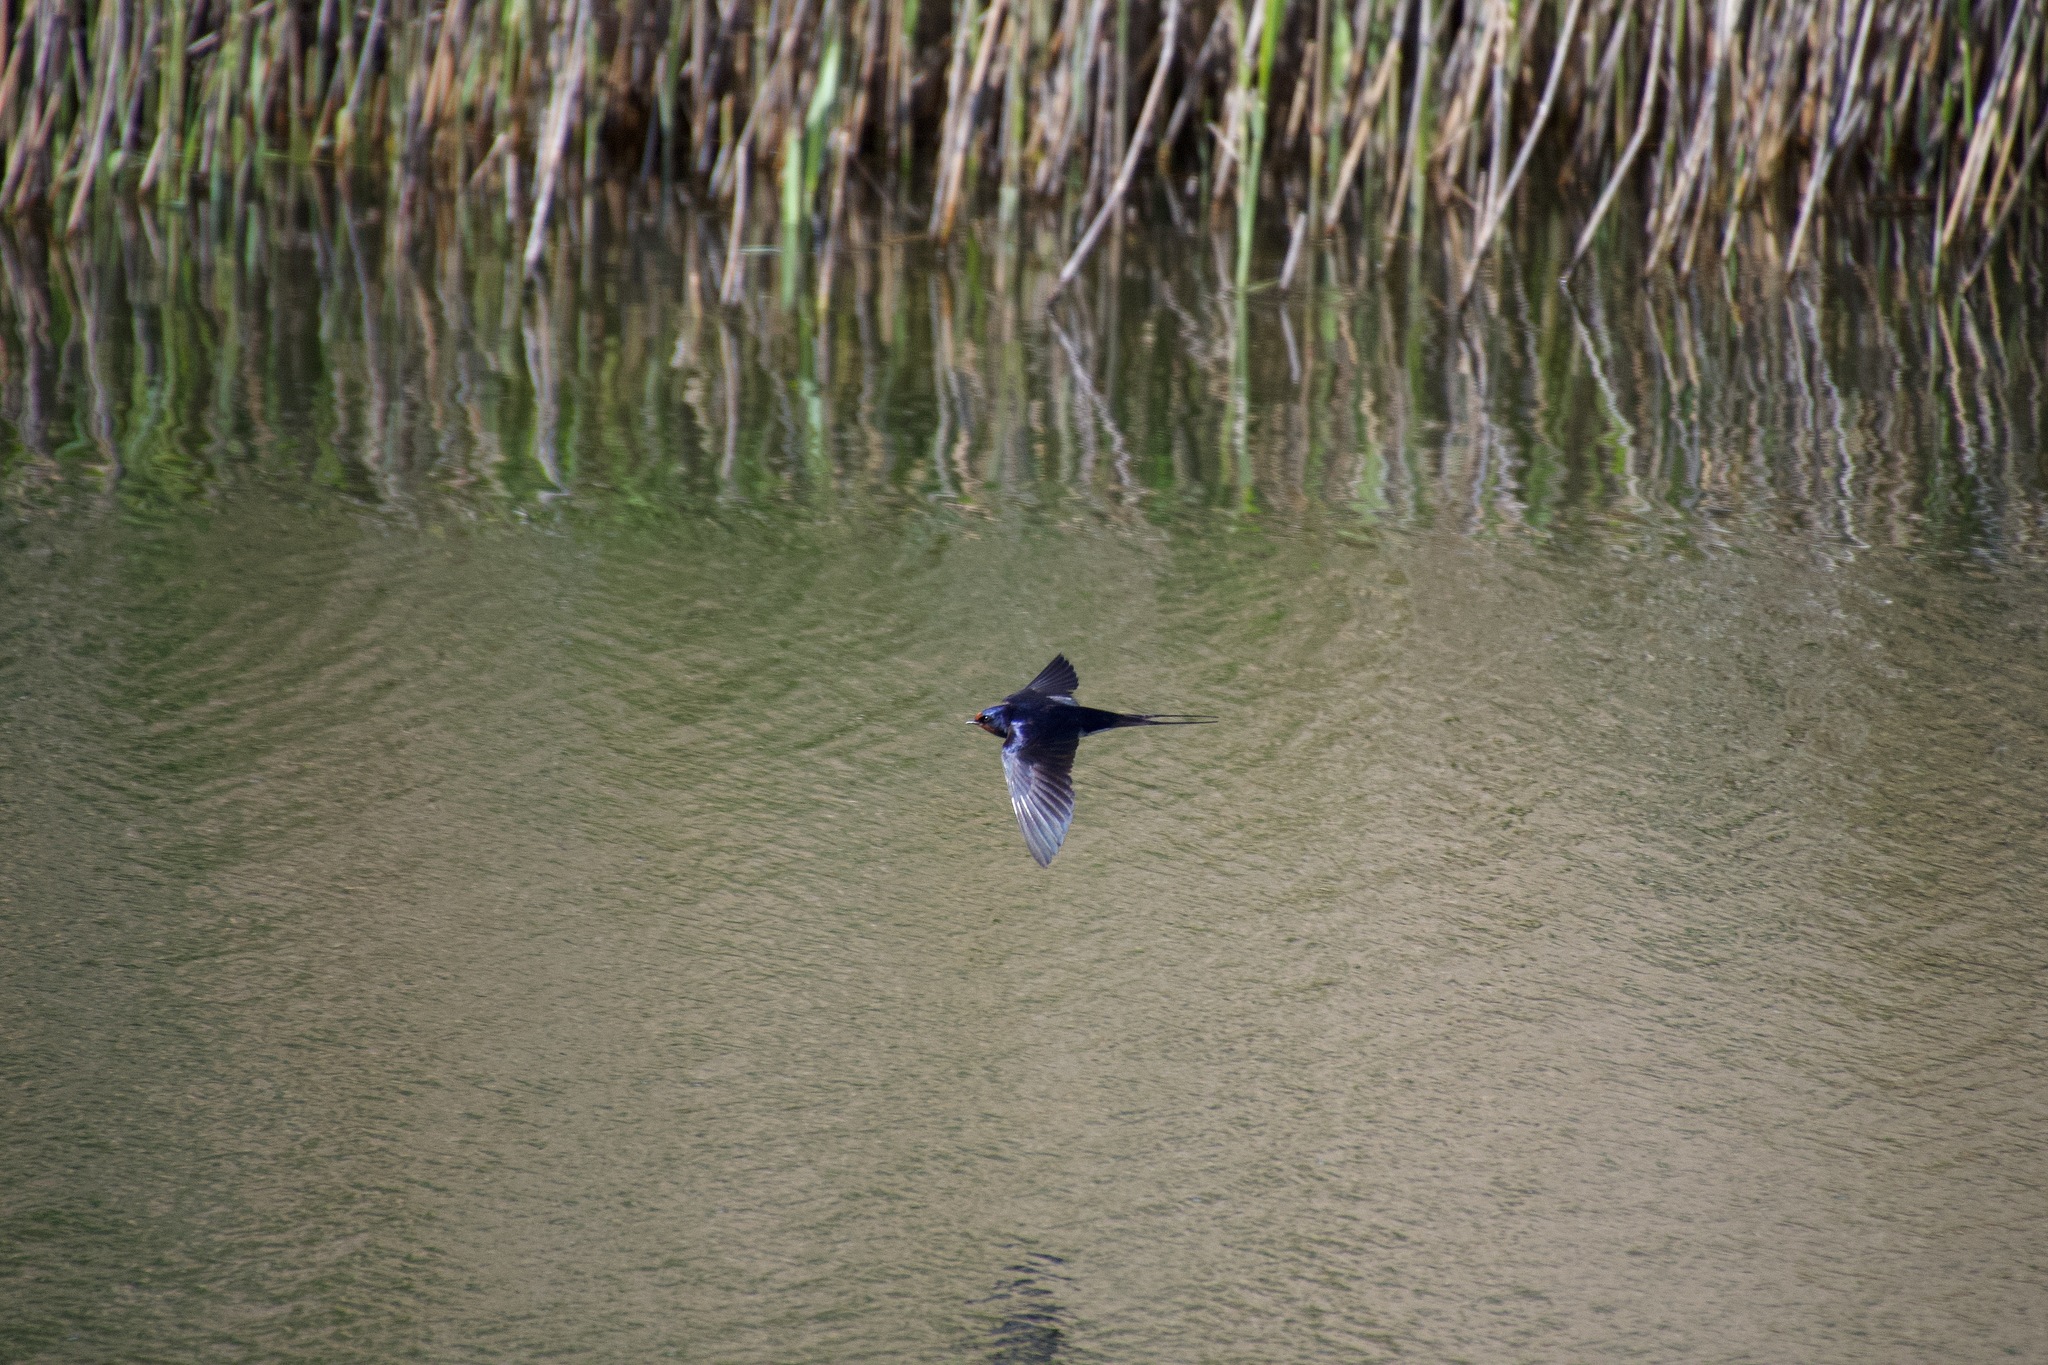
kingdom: Animalia
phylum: Chordata
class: Aves
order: Passeriformes
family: Hirundinidae
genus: Hirundo
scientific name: Hirundo rustica
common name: Barn swallow
